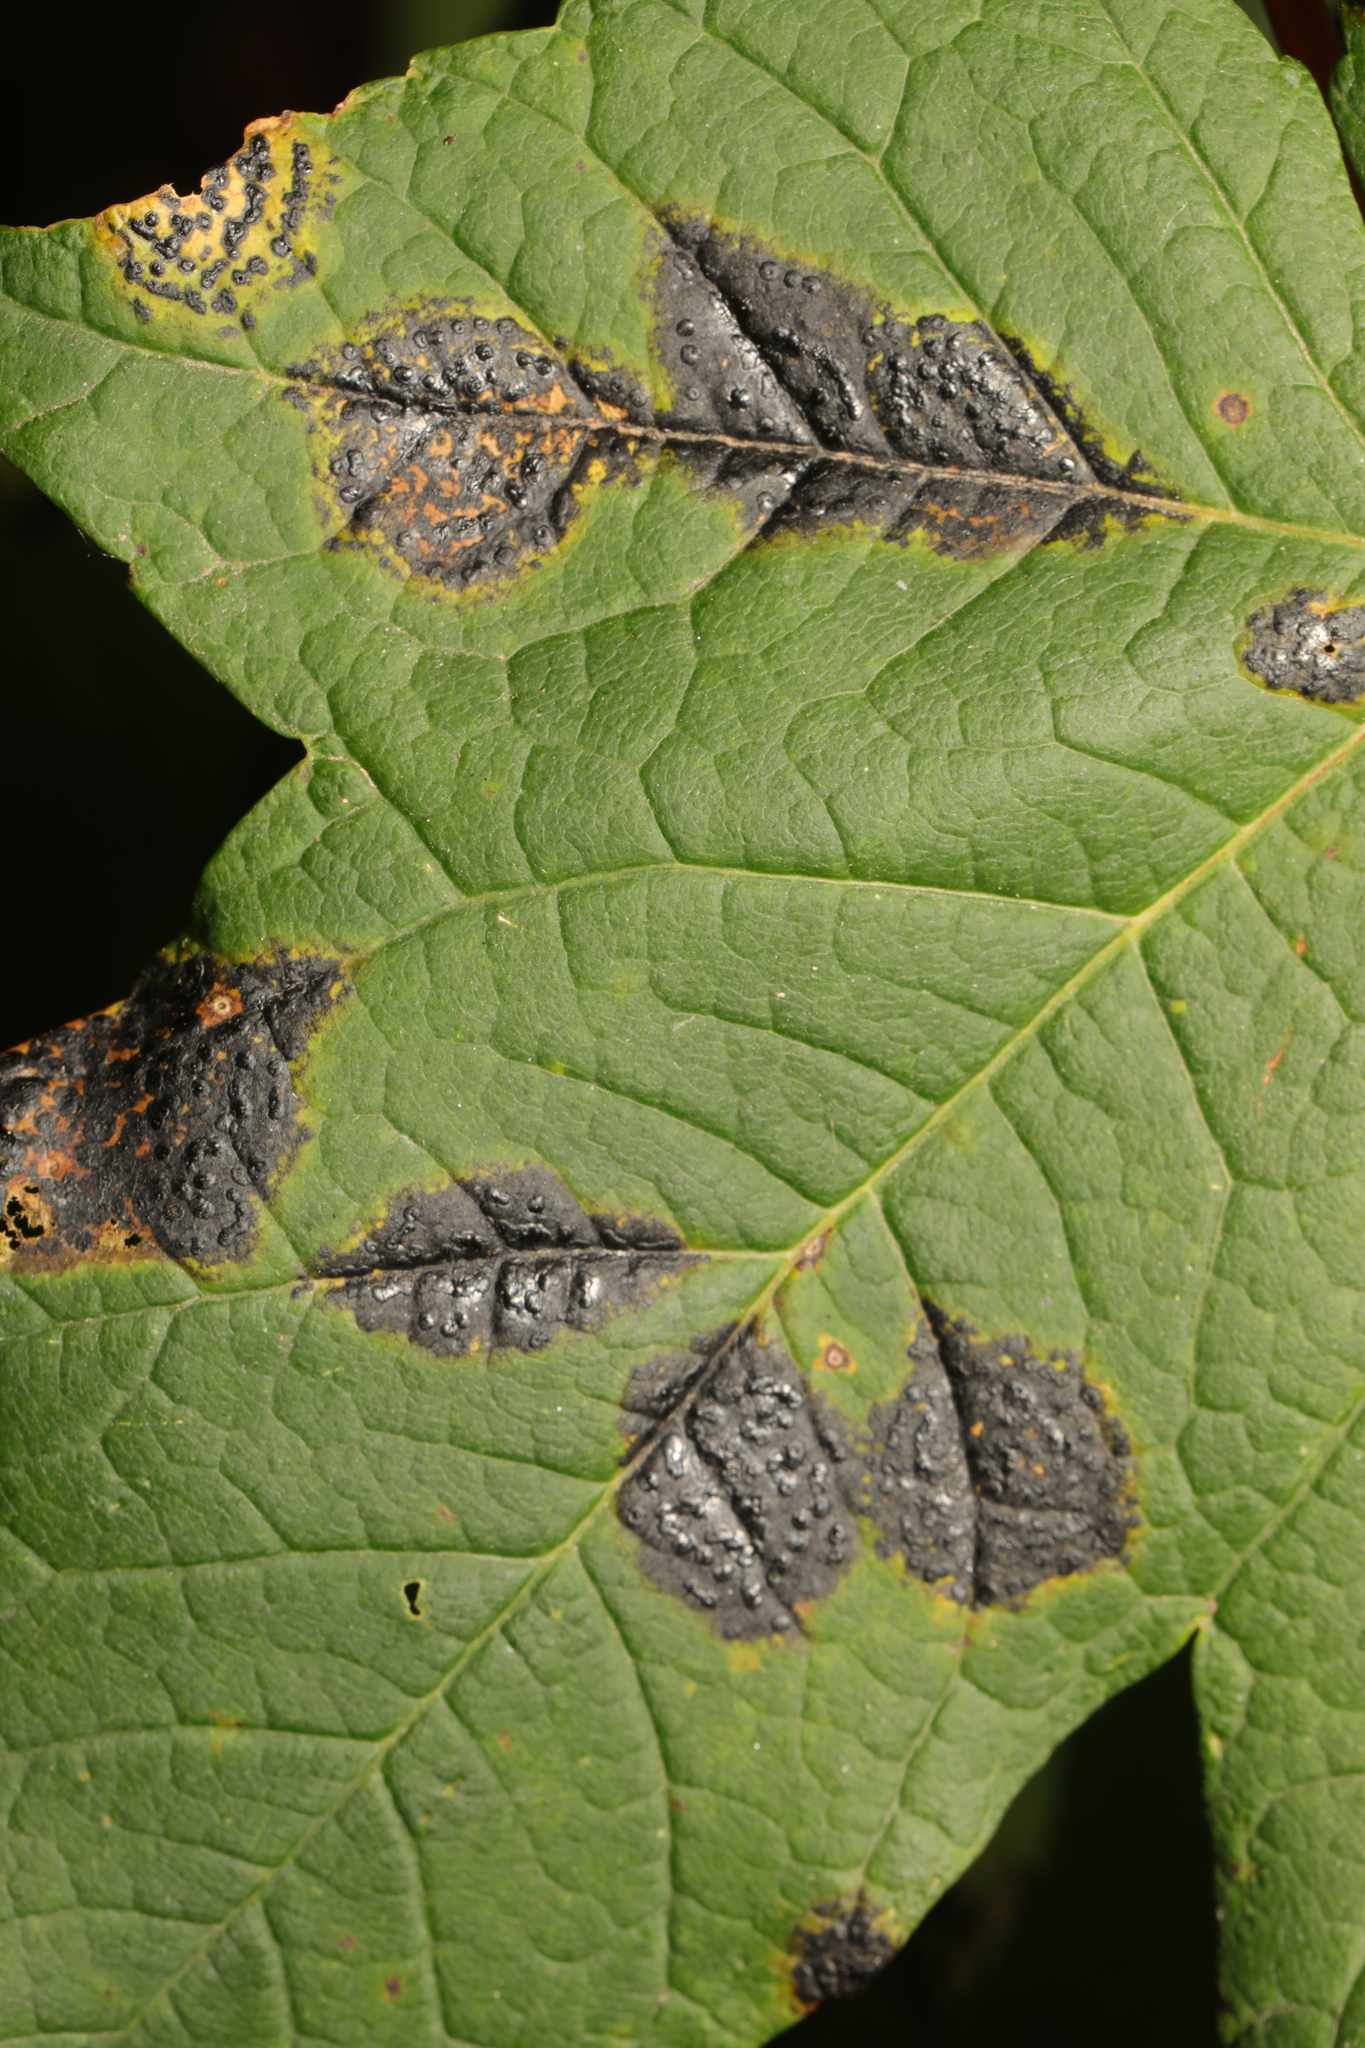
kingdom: Fungi
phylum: Ascomycota
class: Leotiomycetes
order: Rhytismatales
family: Rhytismataceae
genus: Rhytisma
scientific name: Rhytisma acerinum
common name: European tar spot
